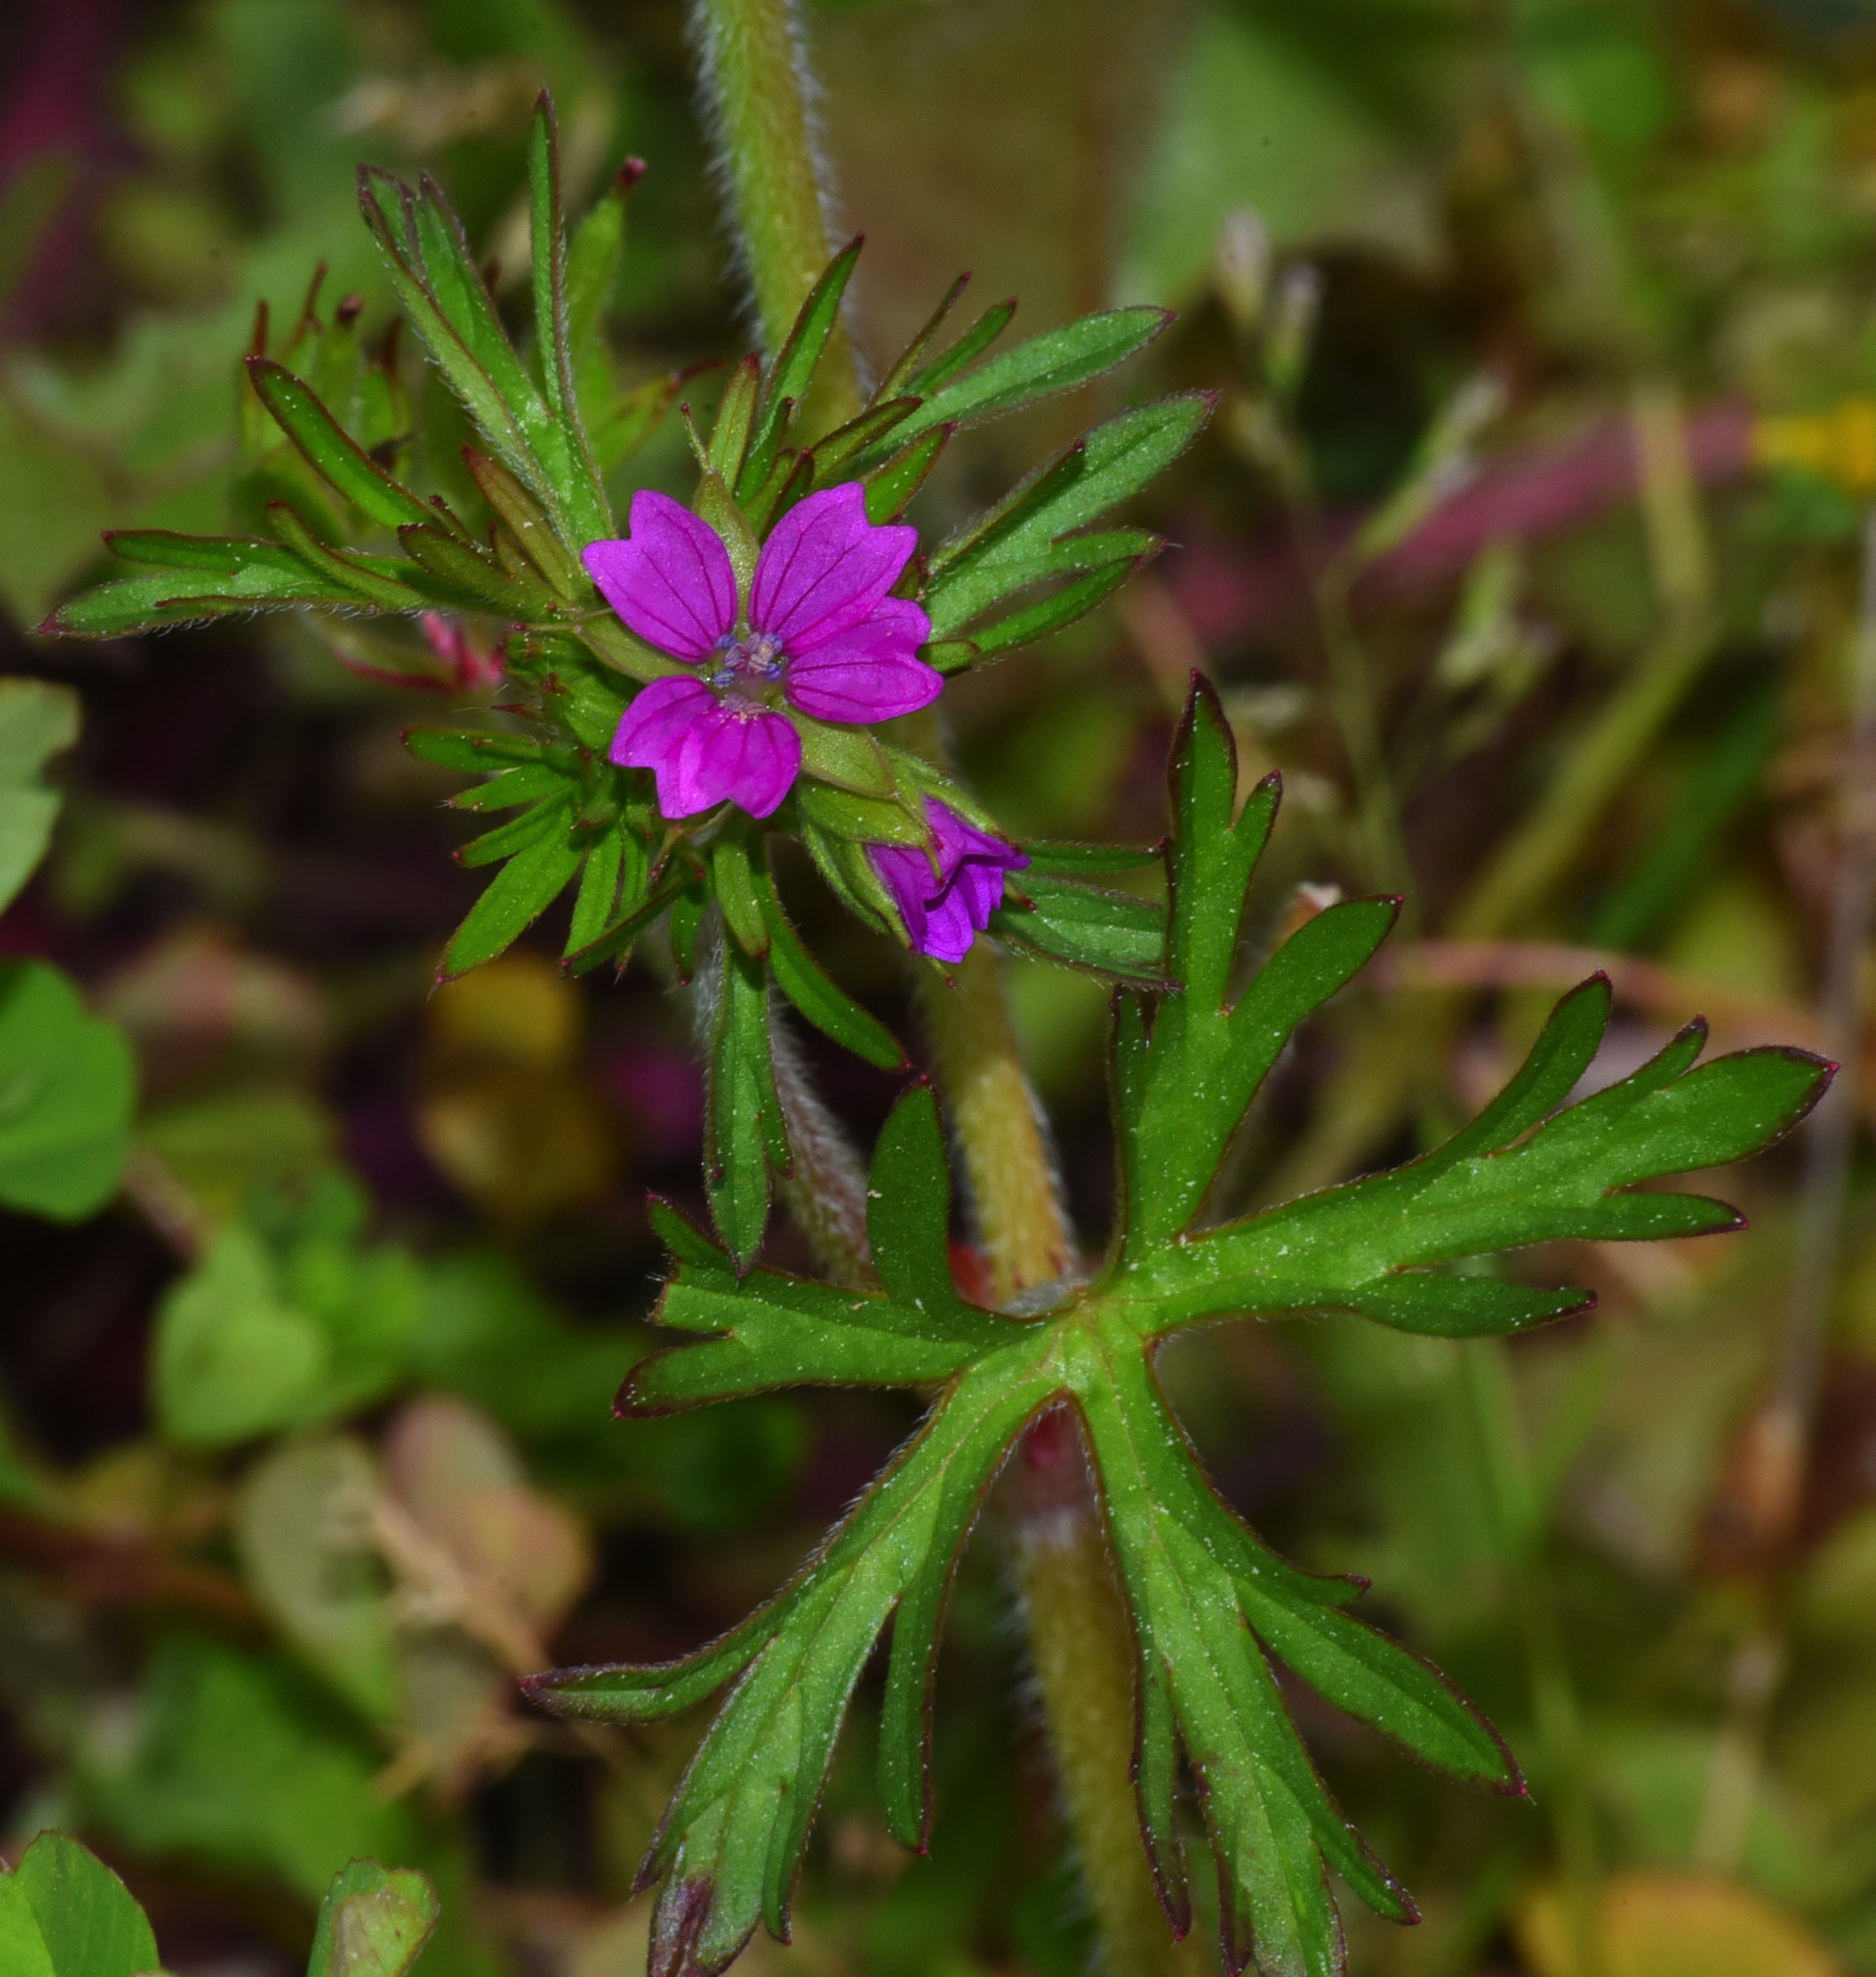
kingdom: Plantae
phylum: Tracheophyta
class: Magnoliopsida
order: Geraniales
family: Geraniaceae
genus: Geranium
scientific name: Geranium dissectum
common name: Cut-leaved crane's-bill
